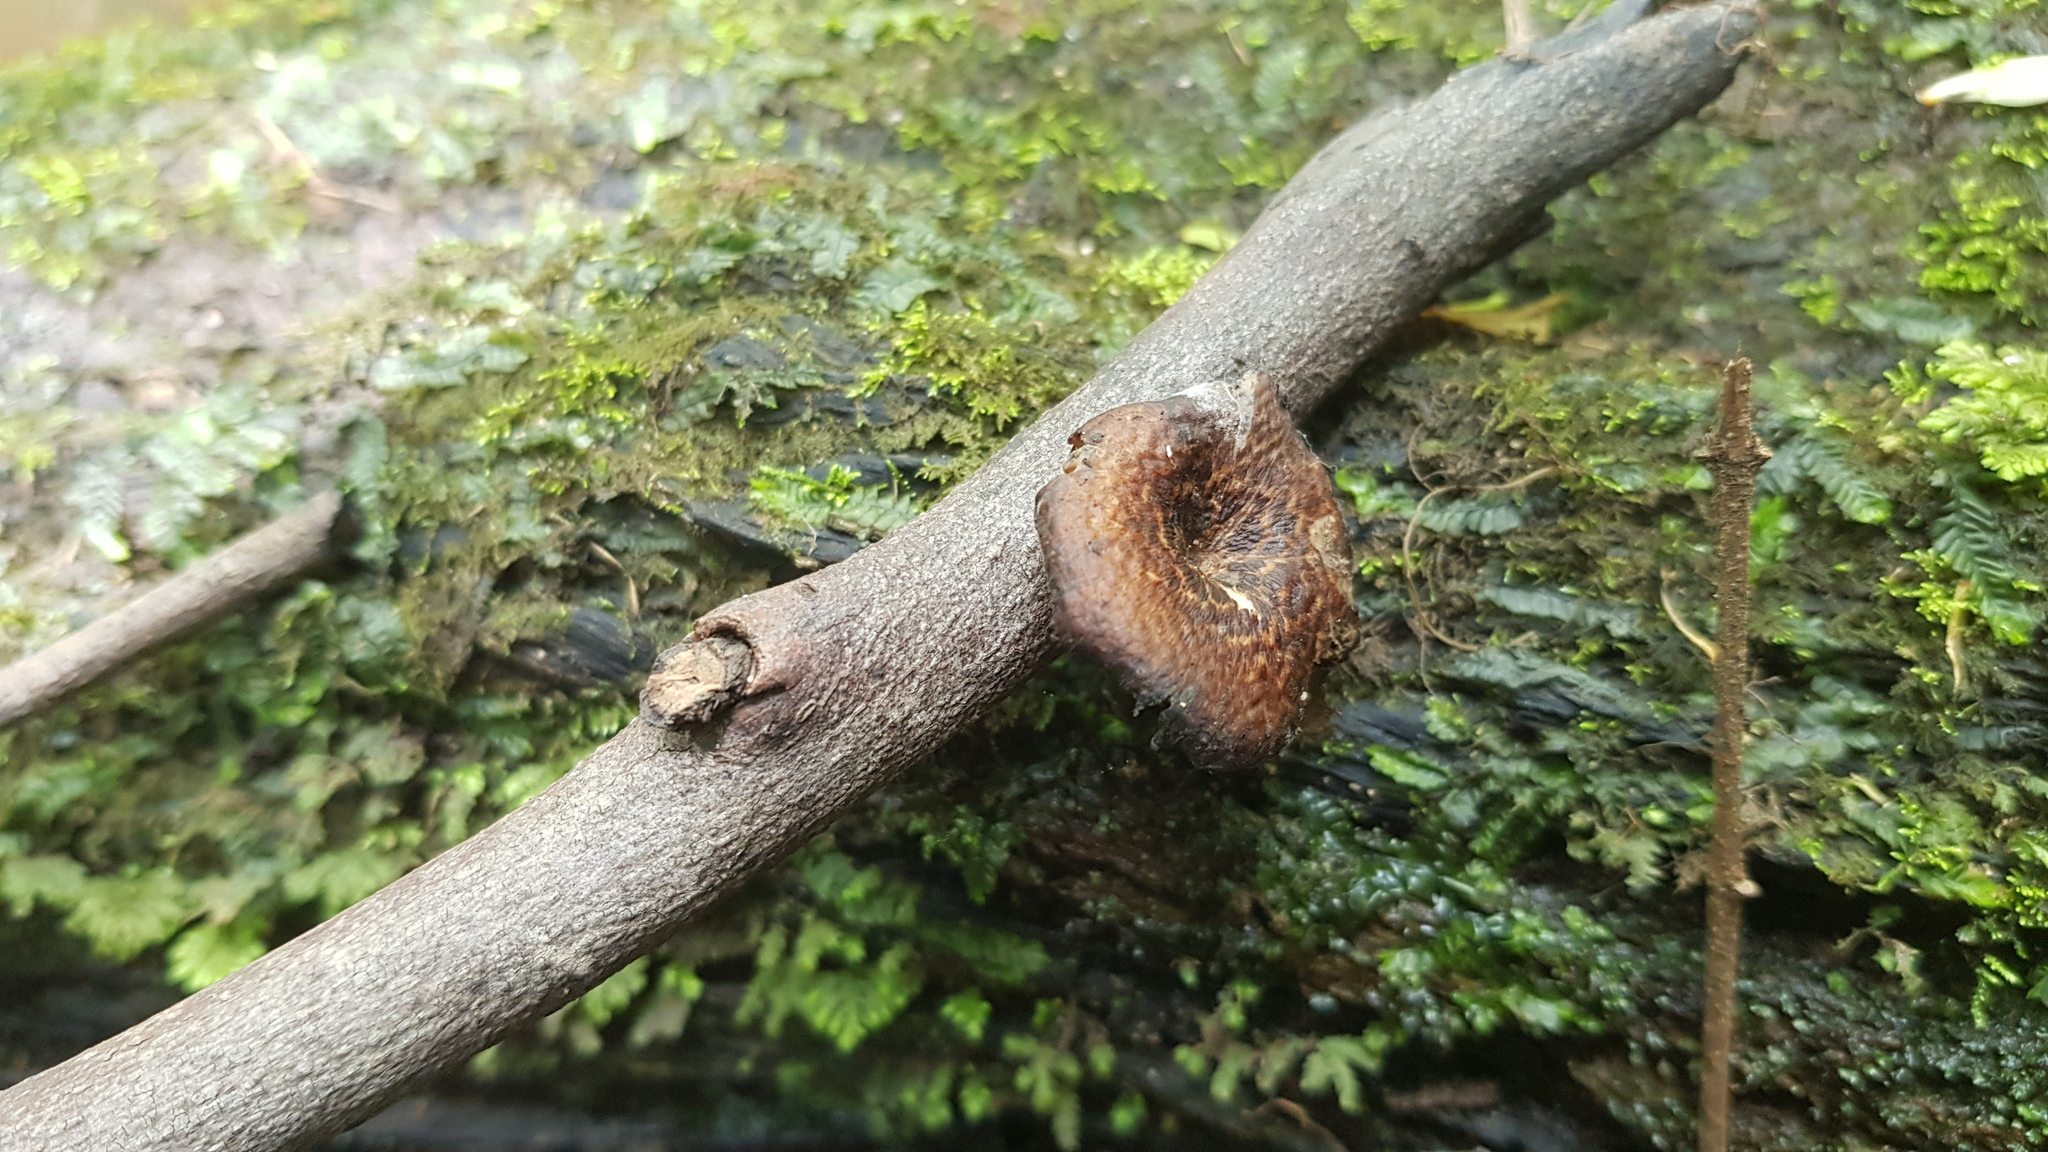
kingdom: Fungi
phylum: Basidiomycota
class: Agaricomycetes
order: Polyporales
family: Polyporaceae
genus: Lentinus
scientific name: Lentinus arcularius
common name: Spring polypore
